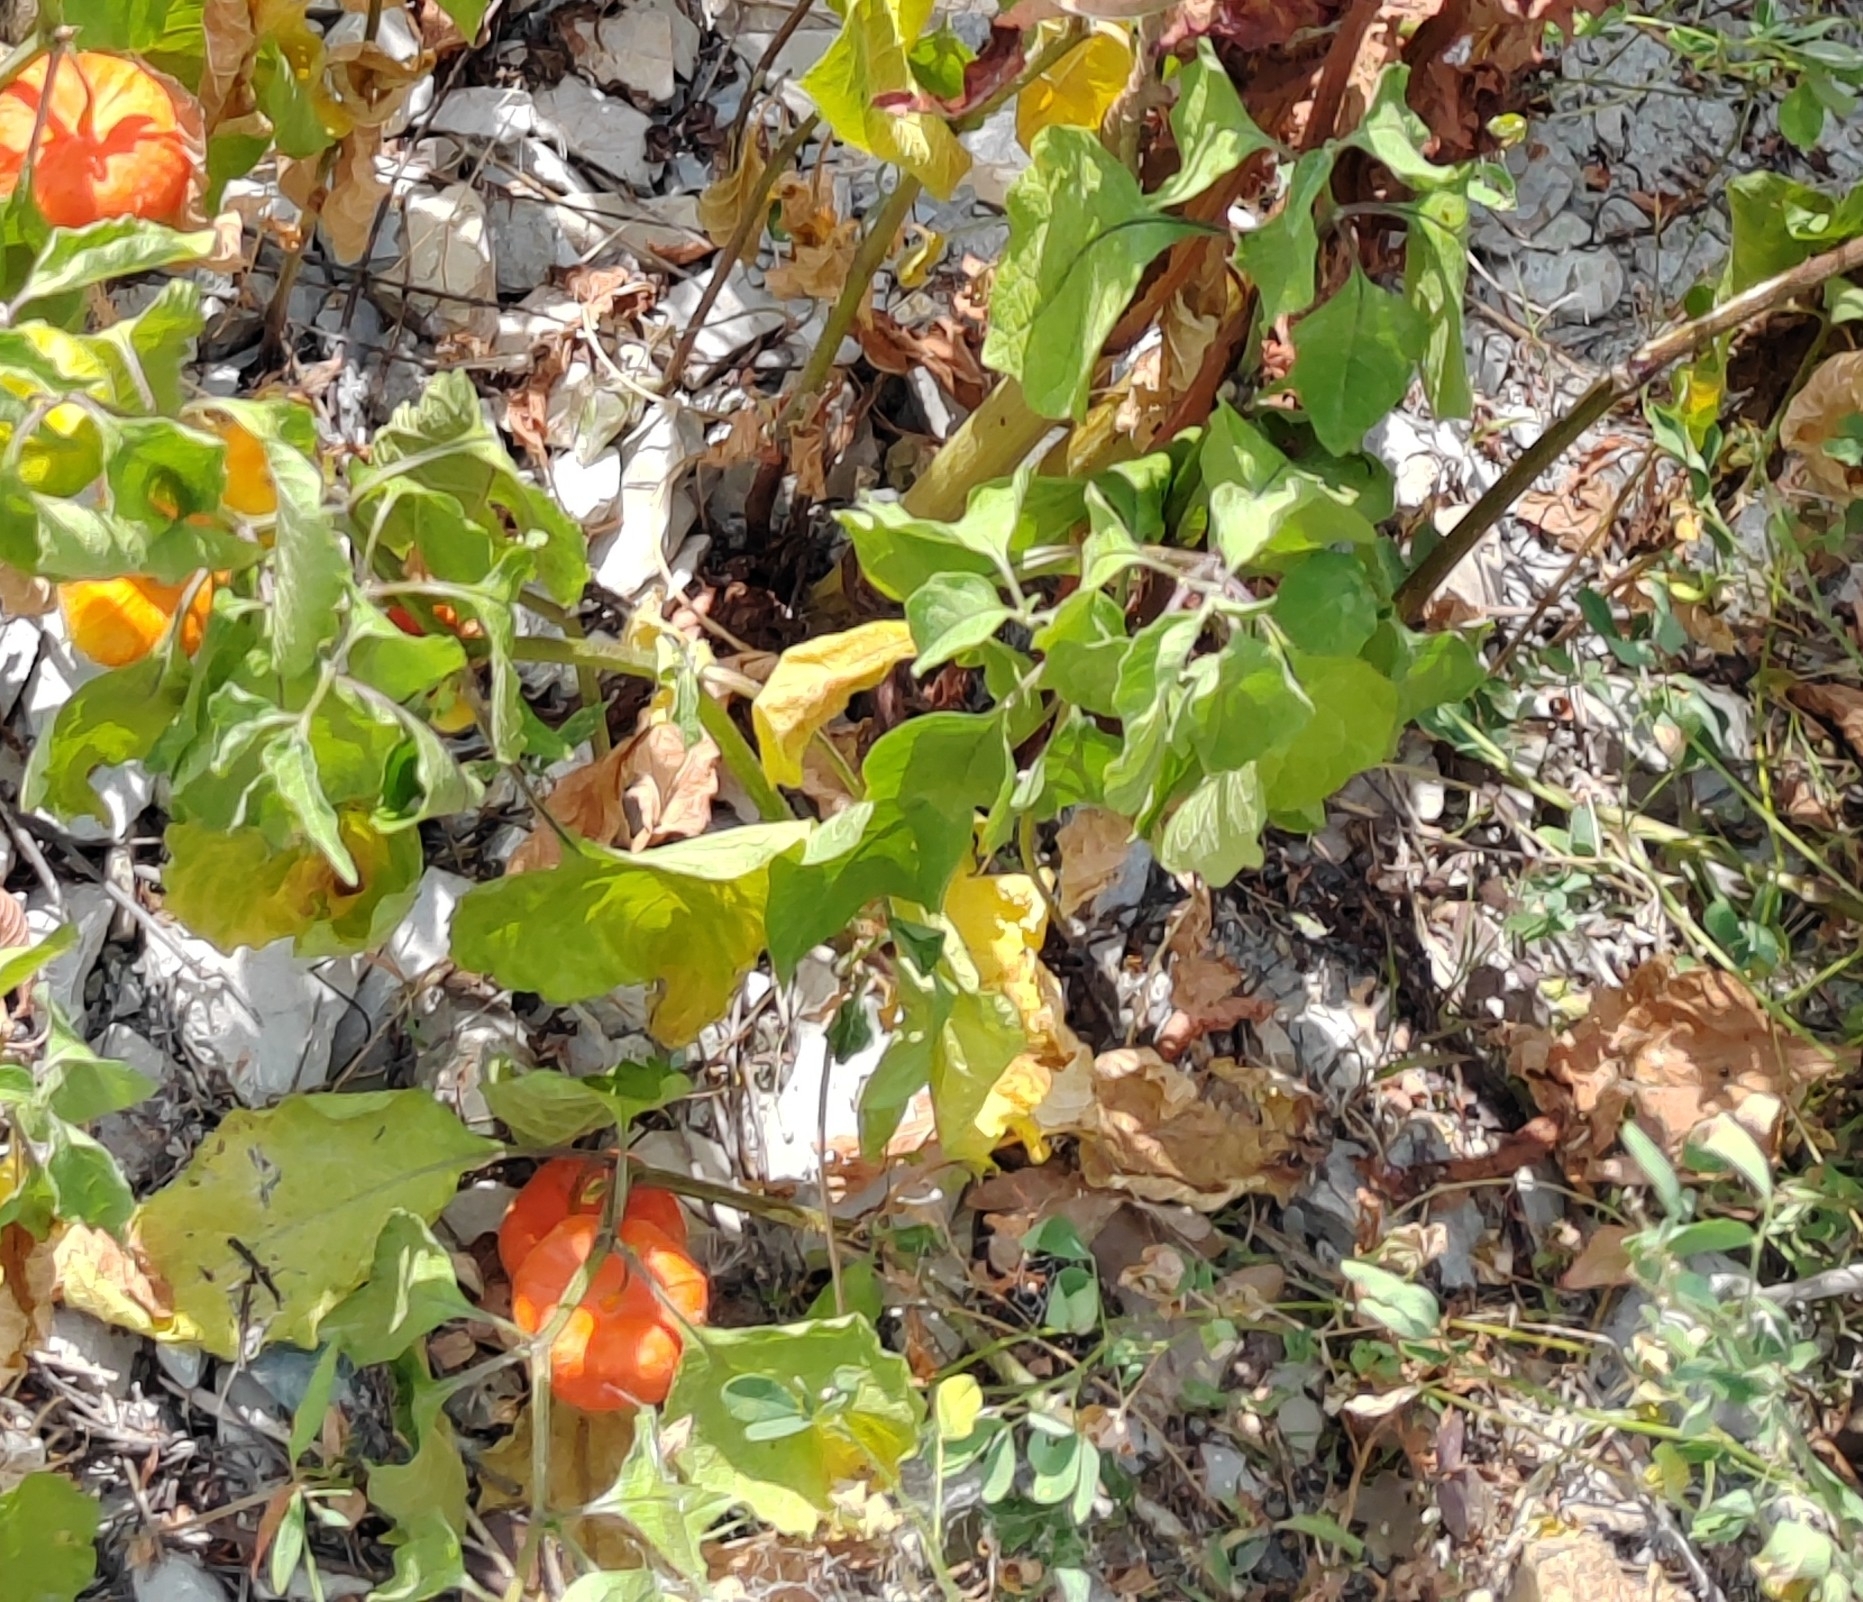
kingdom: Plantae
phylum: Tracheophyta
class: Magnoliopsida
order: Solanales
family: Solanaceae
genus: Alkekengi
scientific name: Alkekengi officinarum
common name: Japanese-lantern
